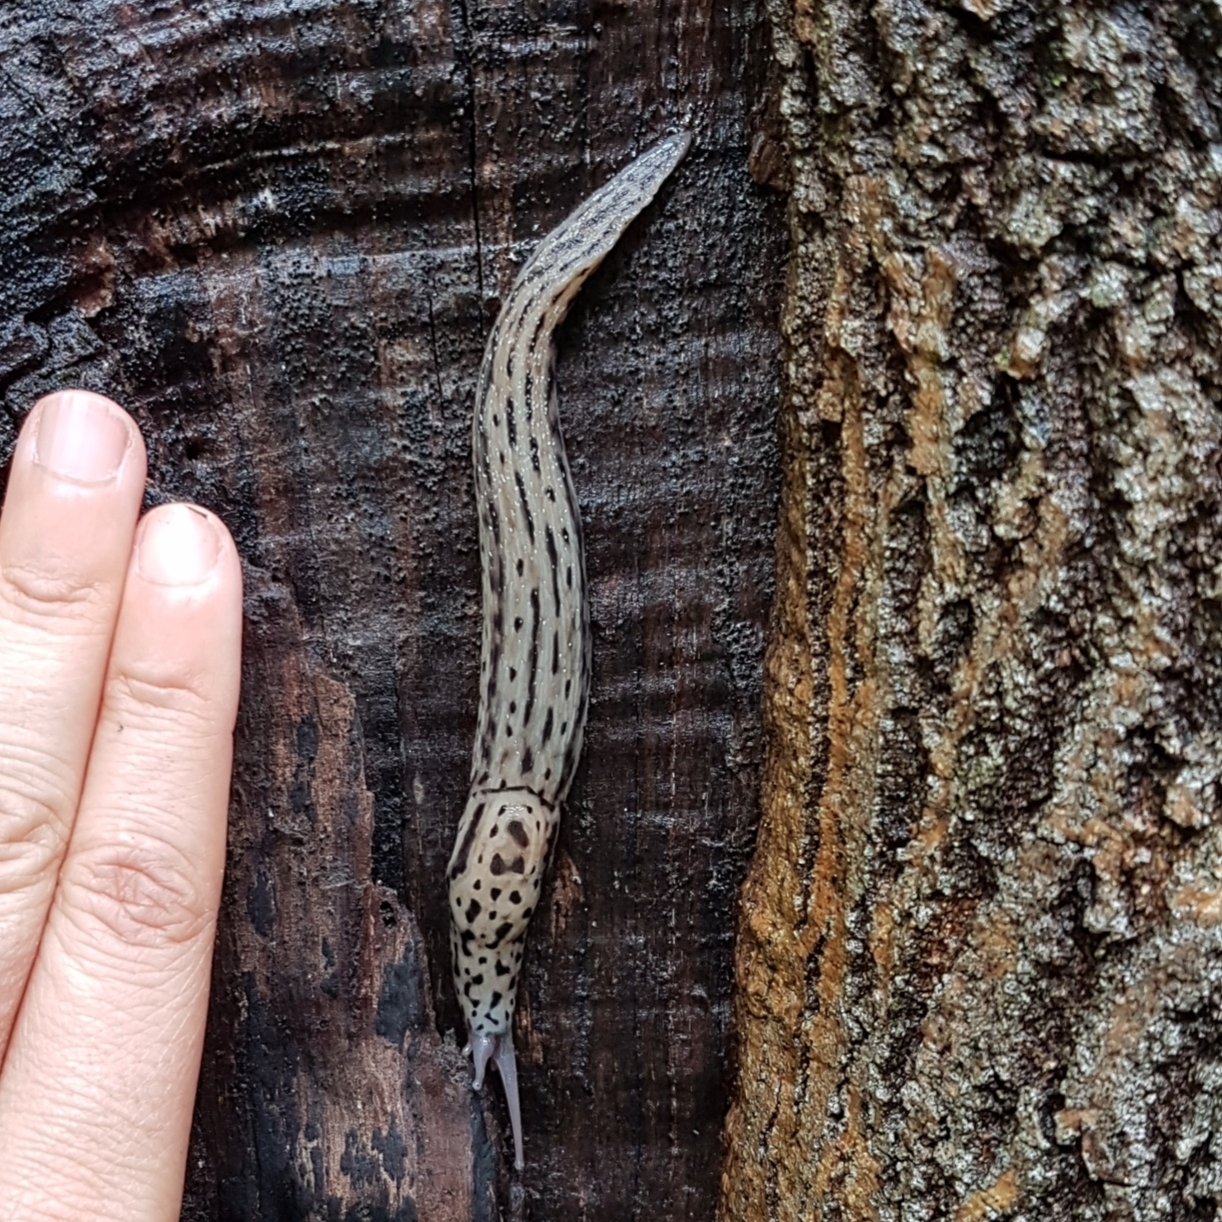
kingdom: Animalia
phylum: Mollusca
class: Gastropoda
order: Stylommatophora
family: Limacidae
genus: Limax
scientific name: Limax maximus
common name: Great grey slug
